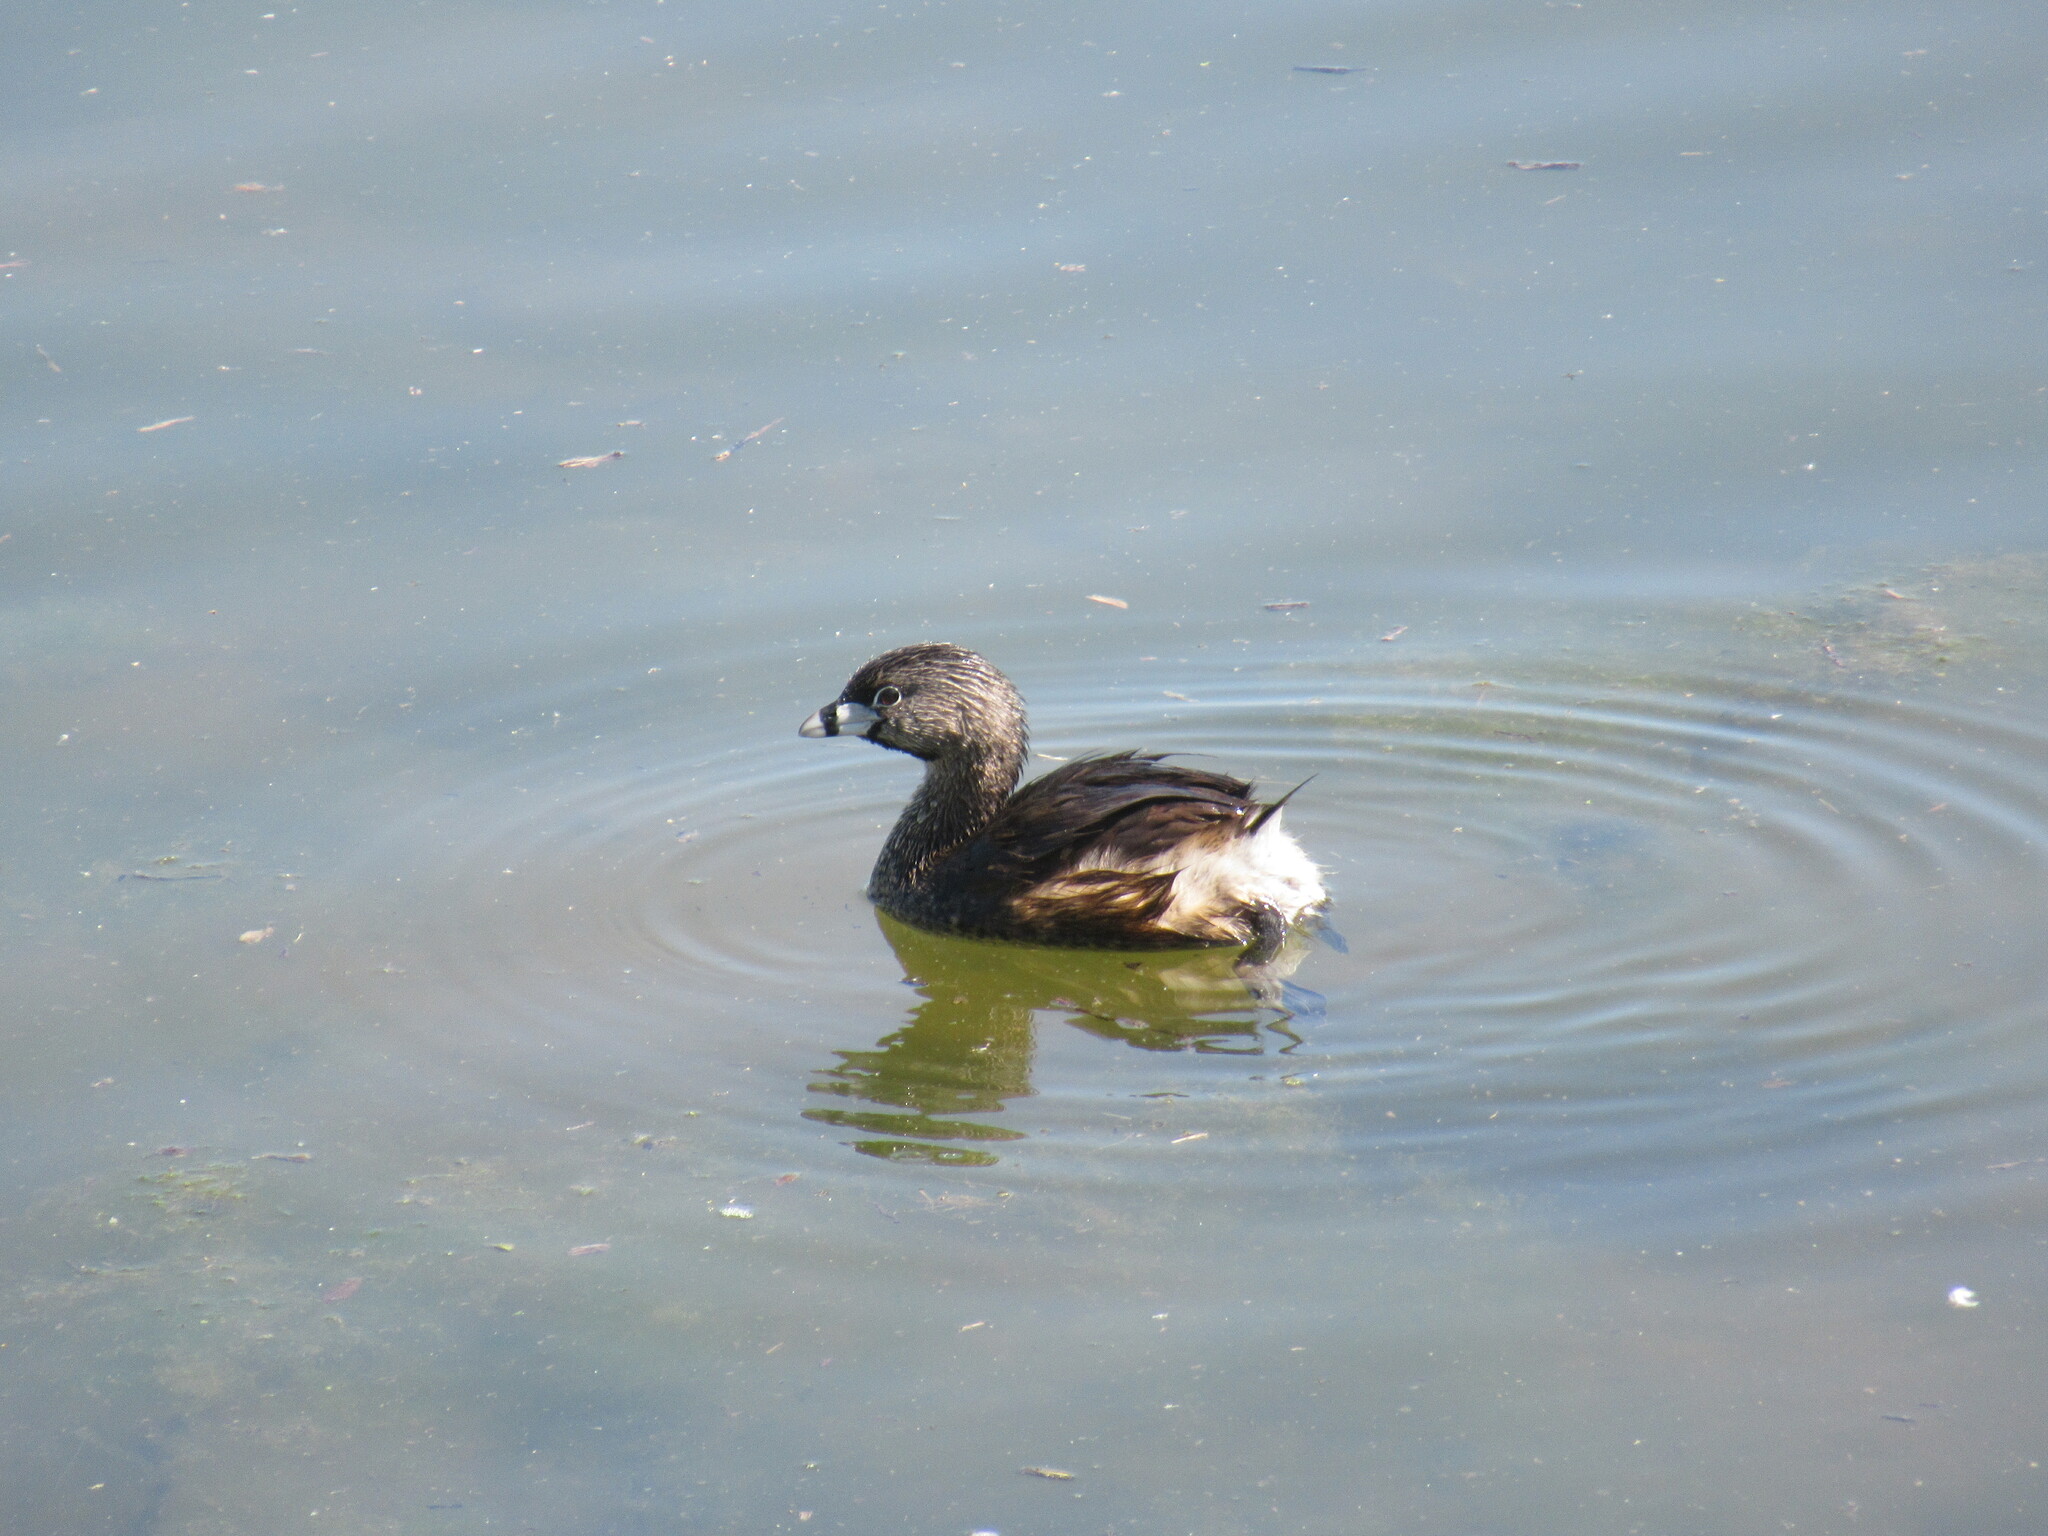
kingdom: Animalia
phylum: Chordata
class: Aves
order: Podicipediformes
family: Podicipedidae
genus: Podilymbus
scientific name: Podilymbus podiceps
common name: Pied-billed grebe
